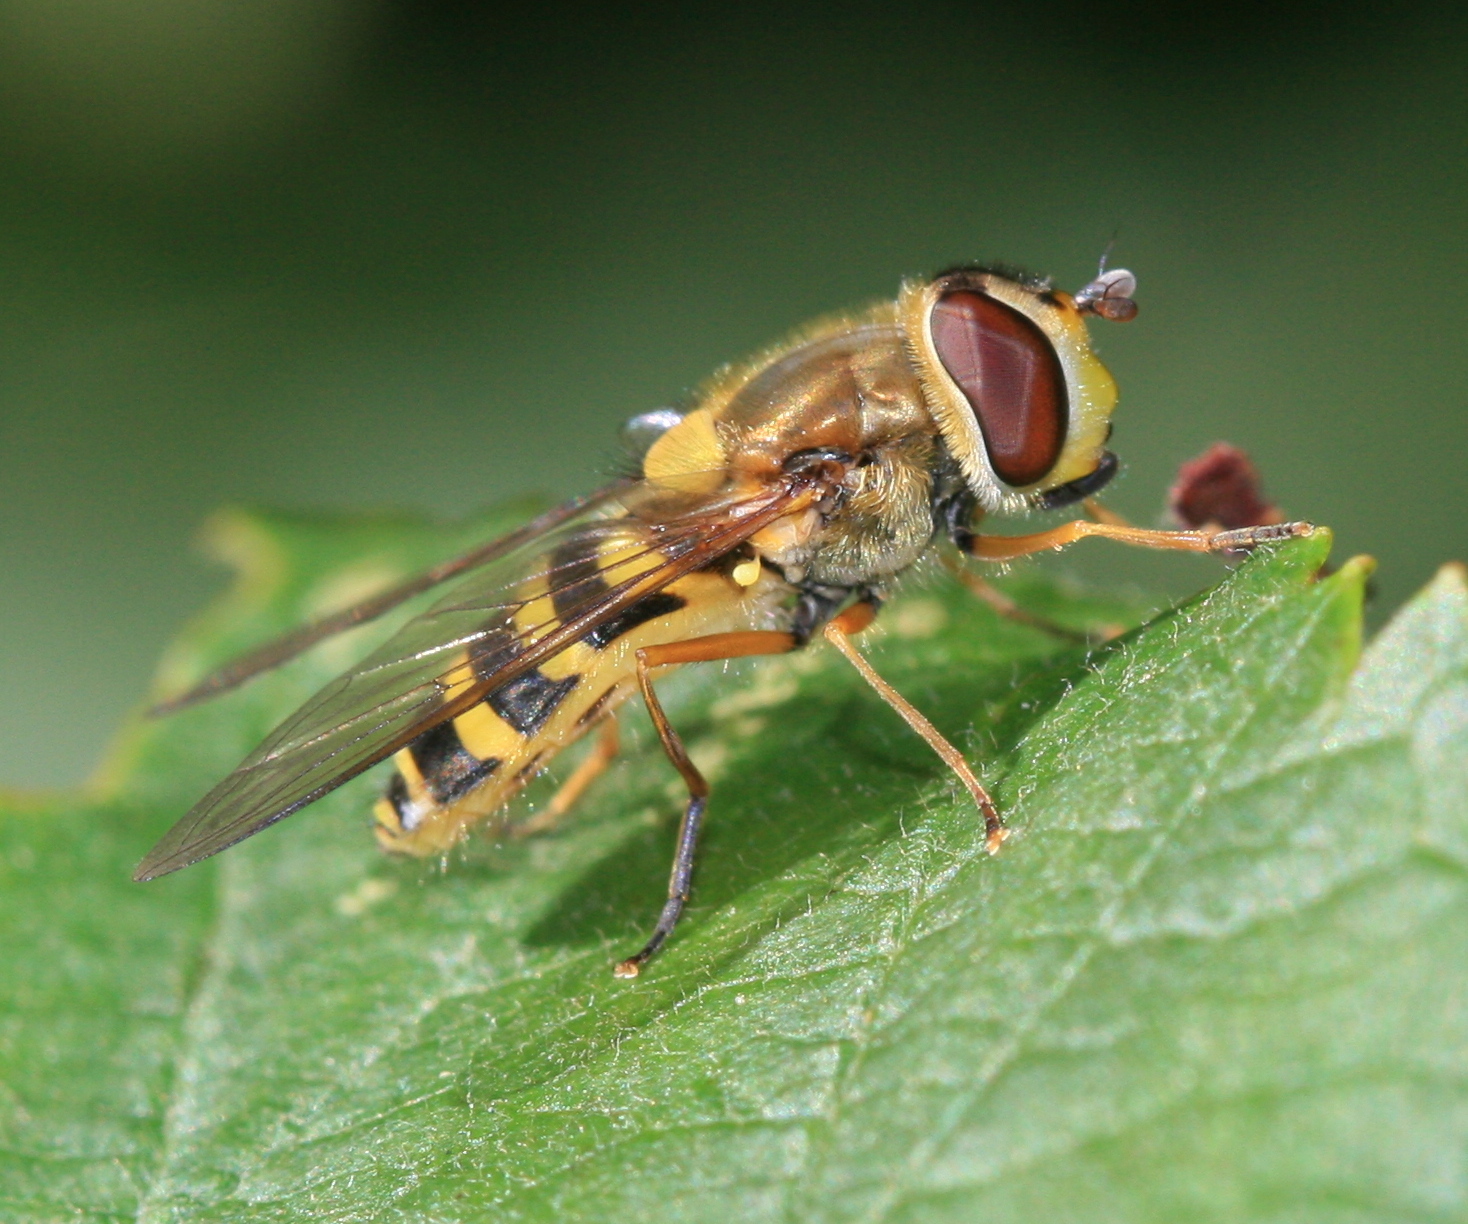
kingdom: Animalia
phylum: Arthropoda
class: Insecta
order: Diptera
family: Syrphidae
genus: Syrphus
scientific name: Syrphus ribesii
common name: Common flower fly
